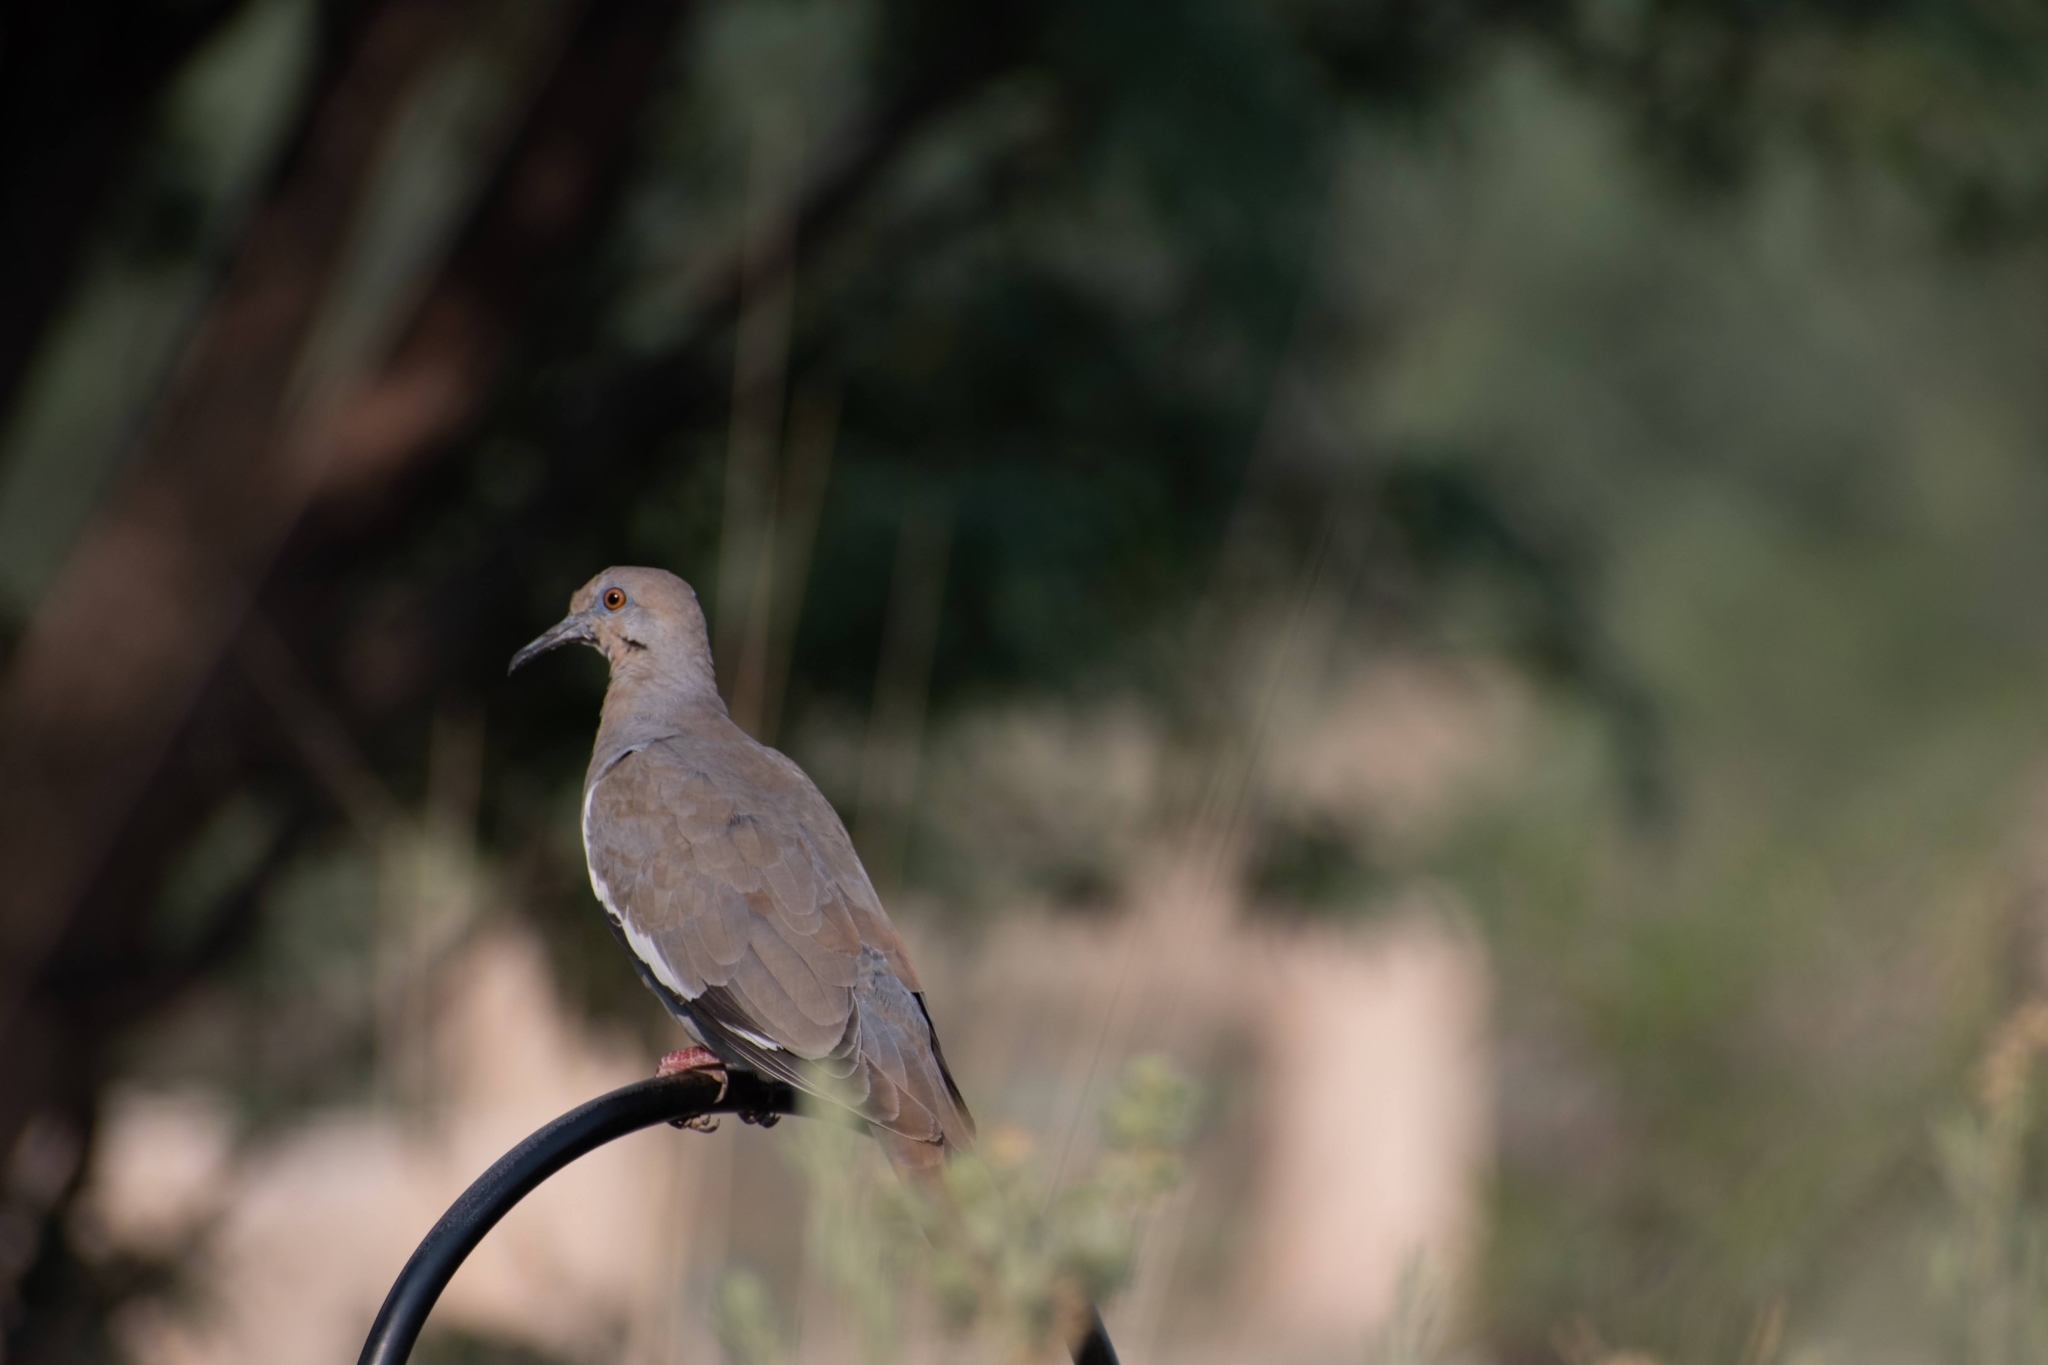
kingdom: Animalia
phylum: Chordata
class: Aves
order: Columbiformes
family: Columbidae
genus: Zenaida
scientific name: Zenaida asiatica
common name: White-winged dove
